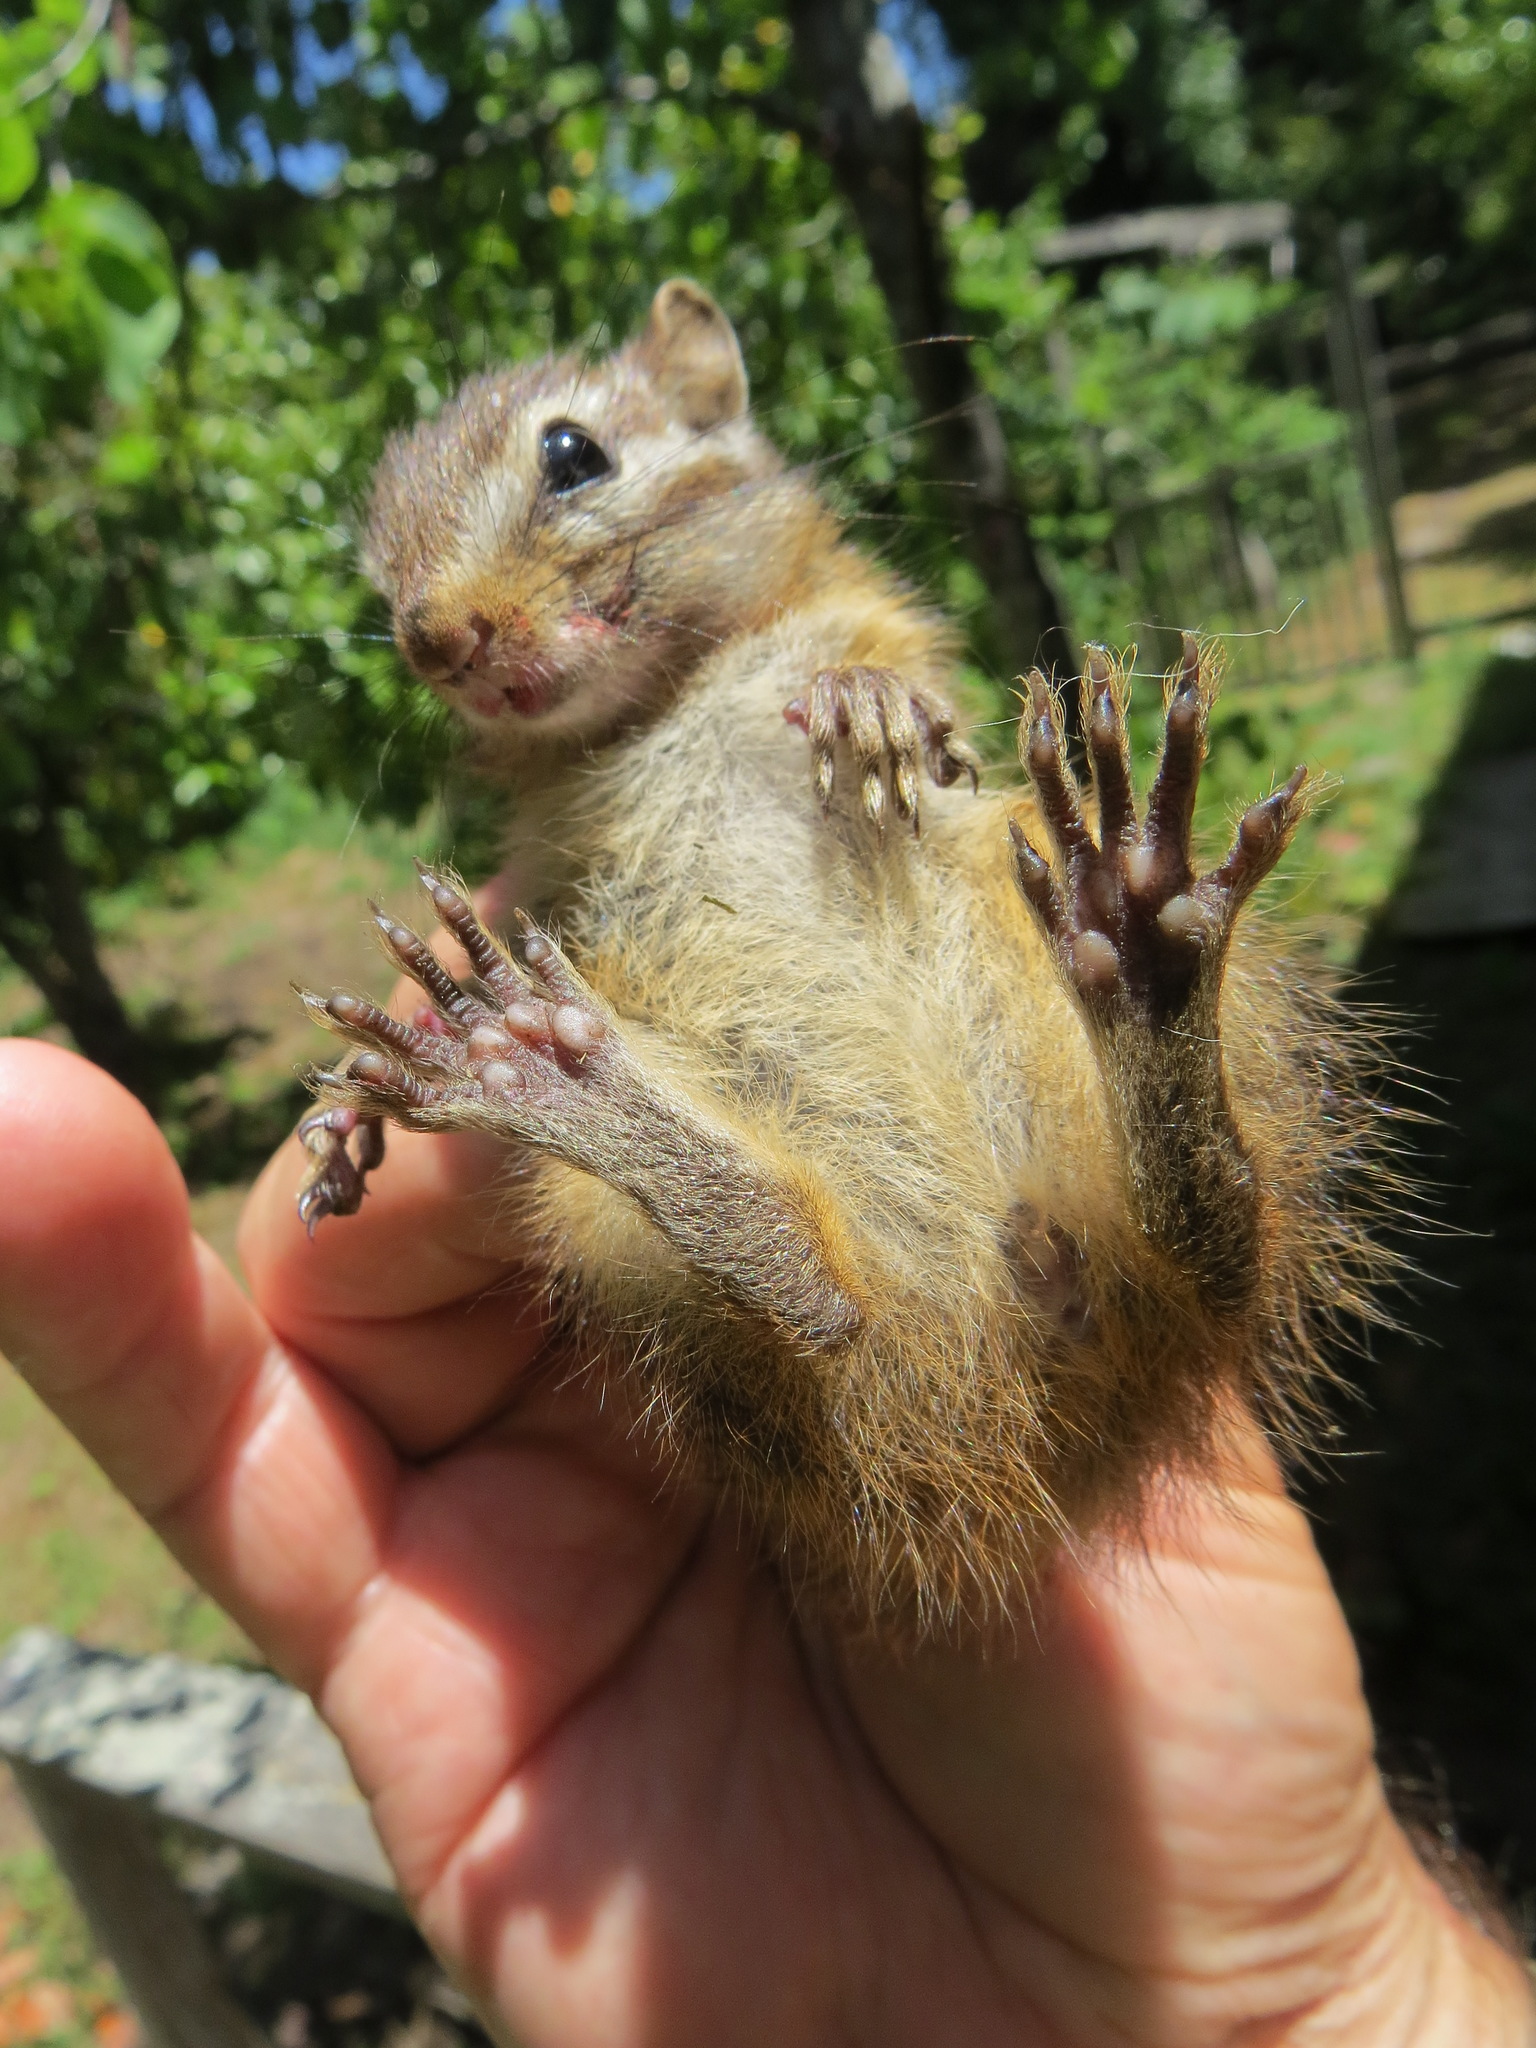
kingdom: Animalia
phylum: Chordata
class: Mammalia
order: Rodentia
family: Sciuridae
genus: Tamias
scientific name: Tamias merriami
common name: Merriam's chipmunk
